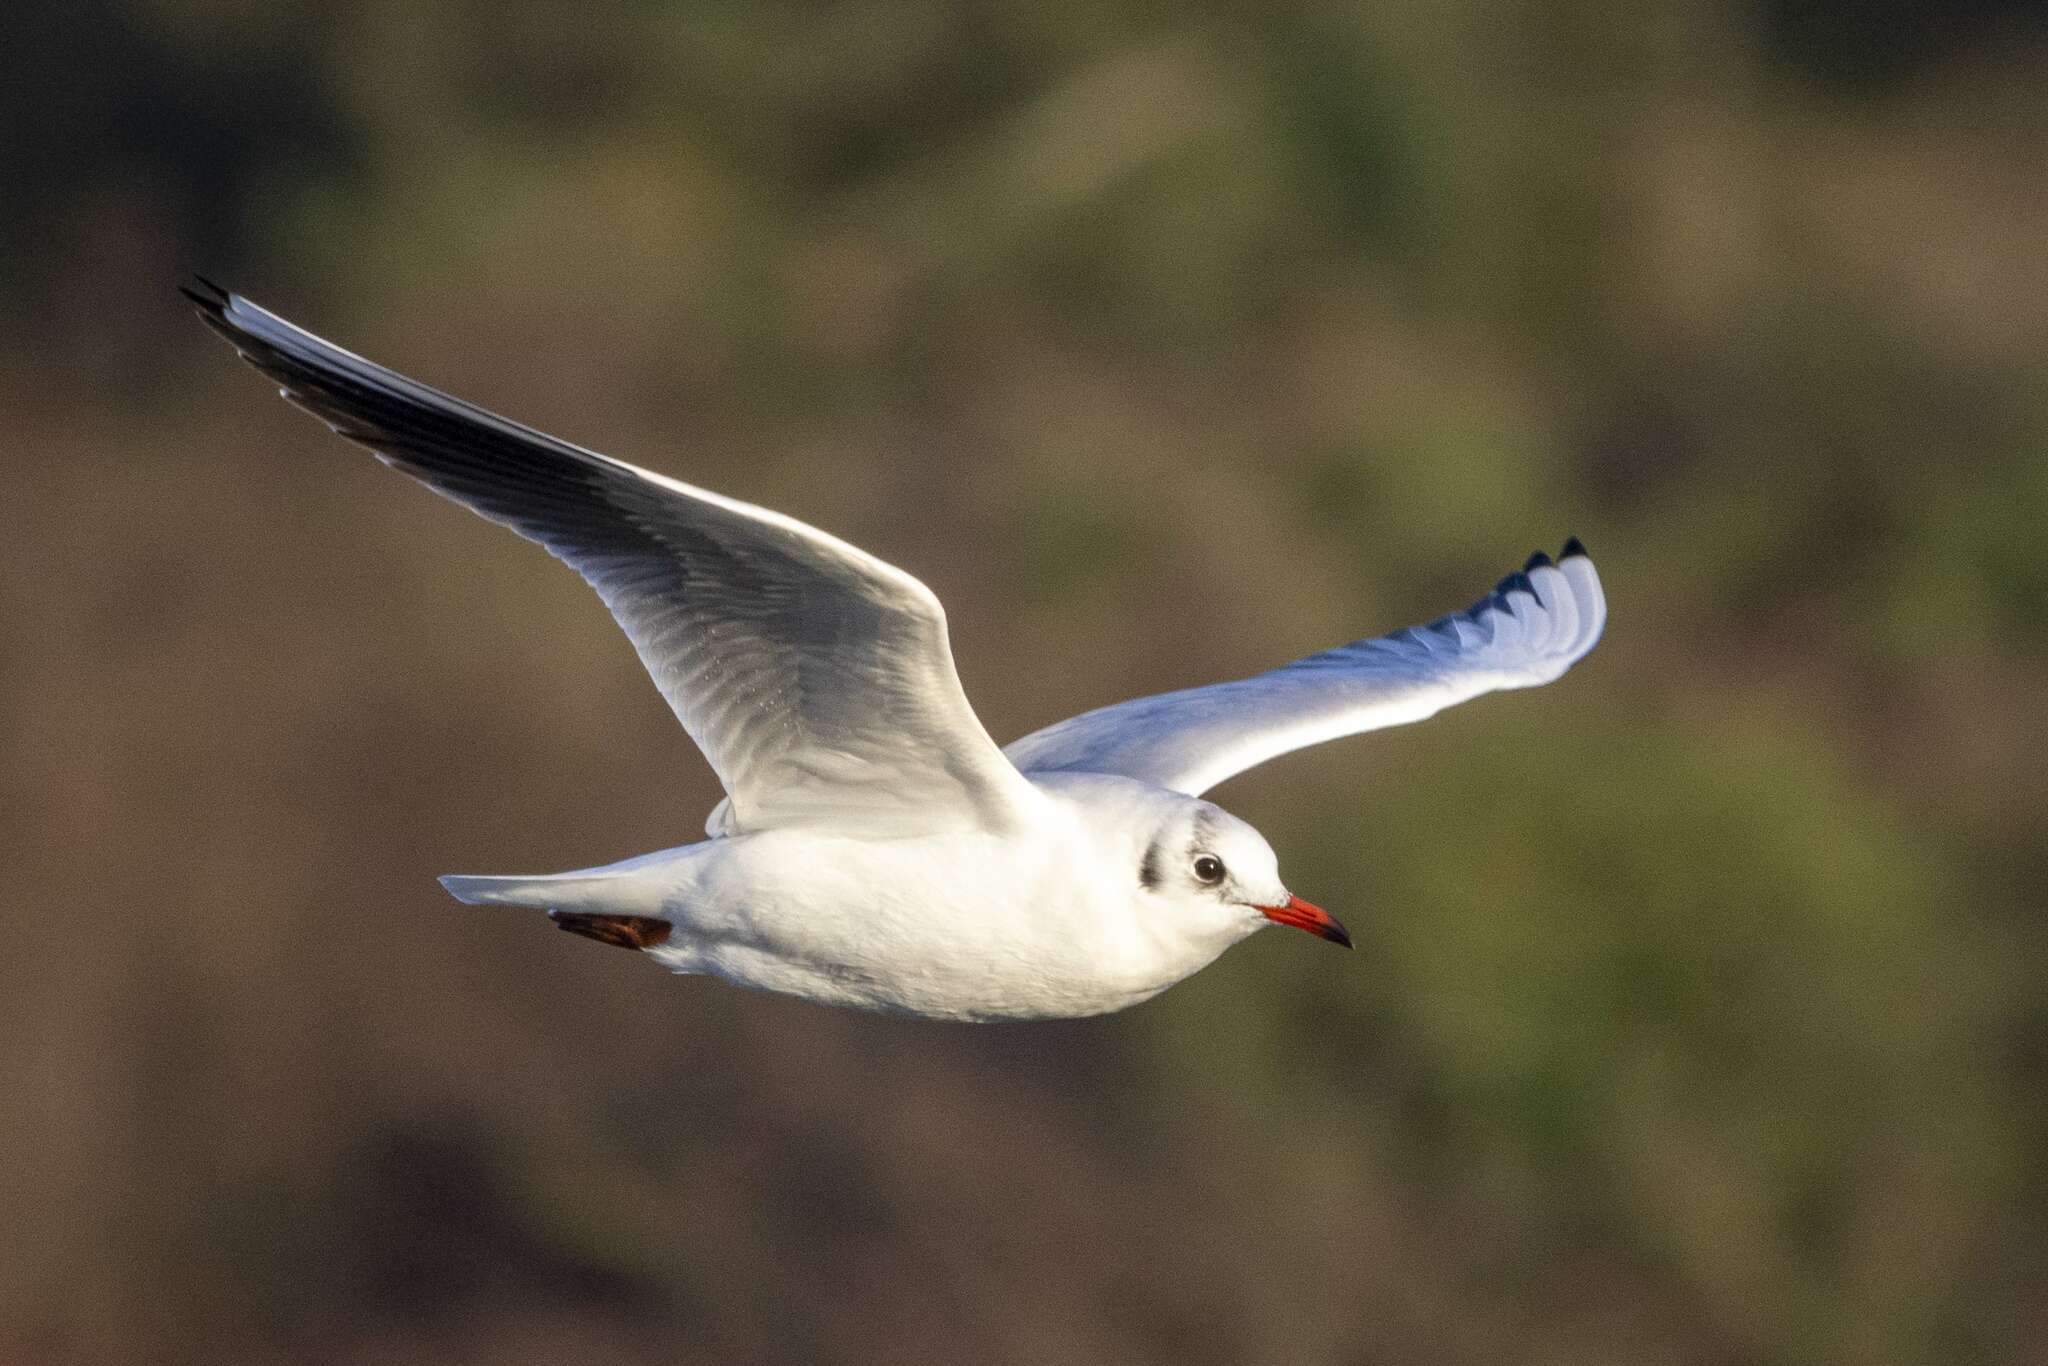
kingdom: Animalia
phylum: Chordata
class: Aves
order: Charadriiformes
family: Laridae
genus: Chroicocephalus
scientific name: Chroicocephalus ridibundus
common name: Black-headed gull
